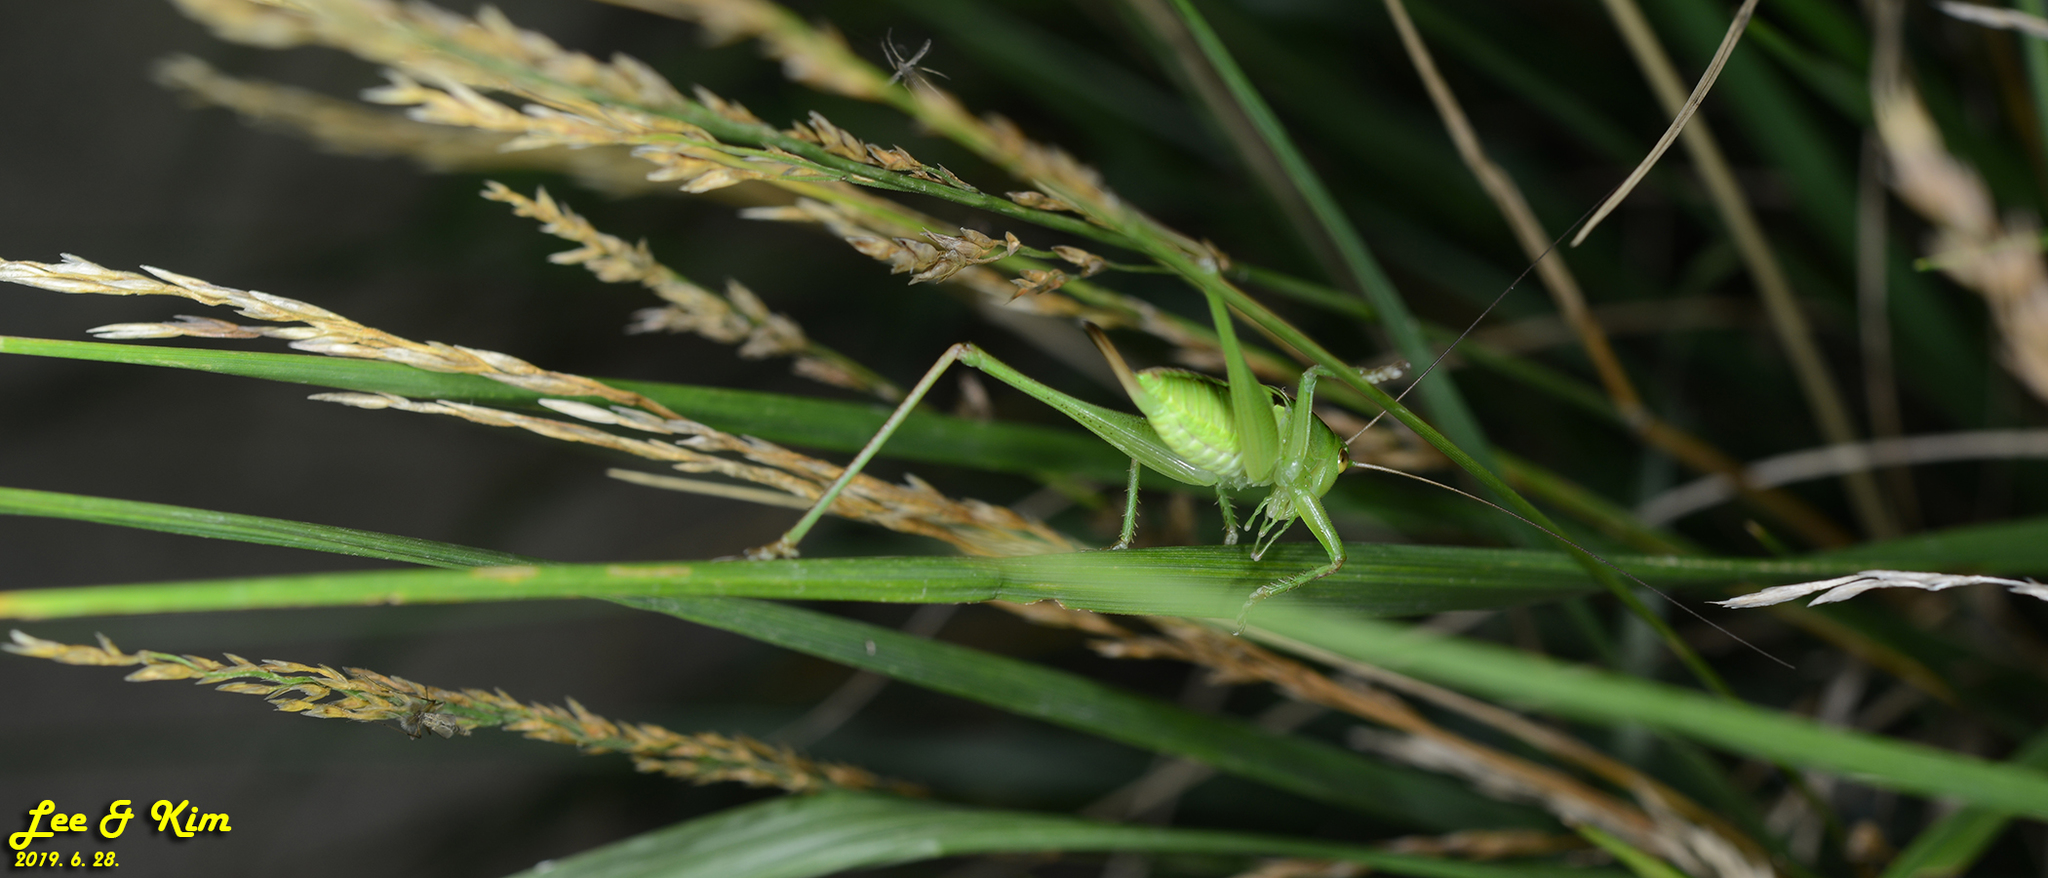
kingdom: Animalia
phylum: Arthropoda
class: Insecta
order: Orthoptera
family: Tettigoniidae
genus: Gampsocleis
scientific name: Gampsocleis ussuriensis
